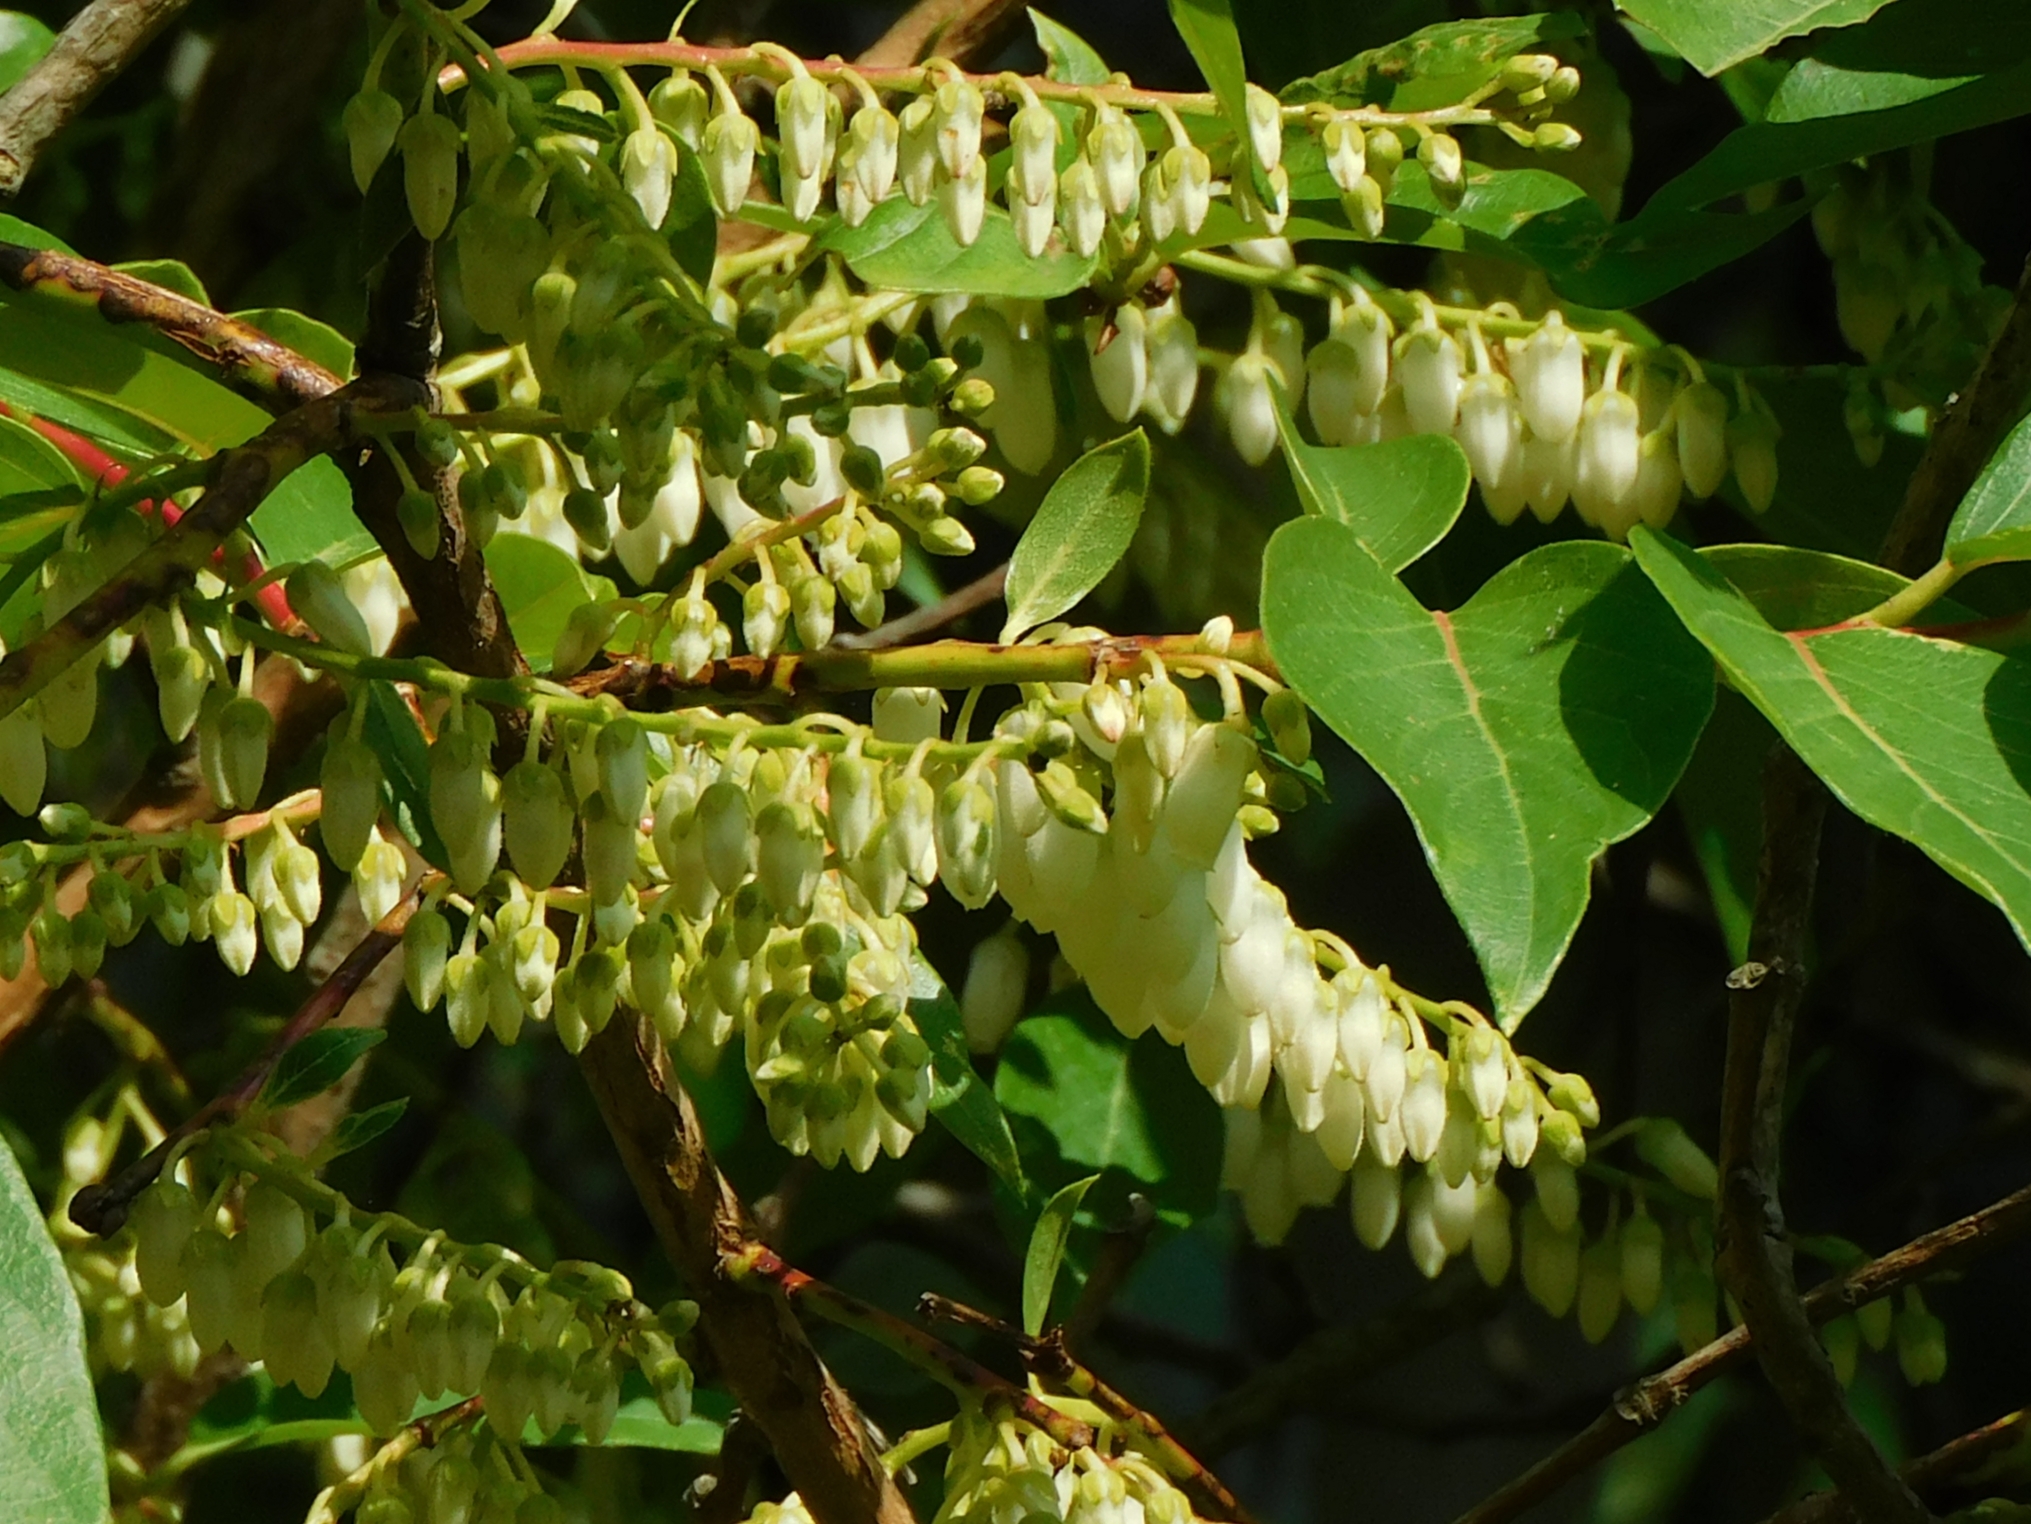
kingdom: Plantae
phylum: Tracheophyta
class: Magnoliopsida
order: Ericales
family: Ericaceae
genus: Lyonia
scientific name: Lyonia ovalifolia
